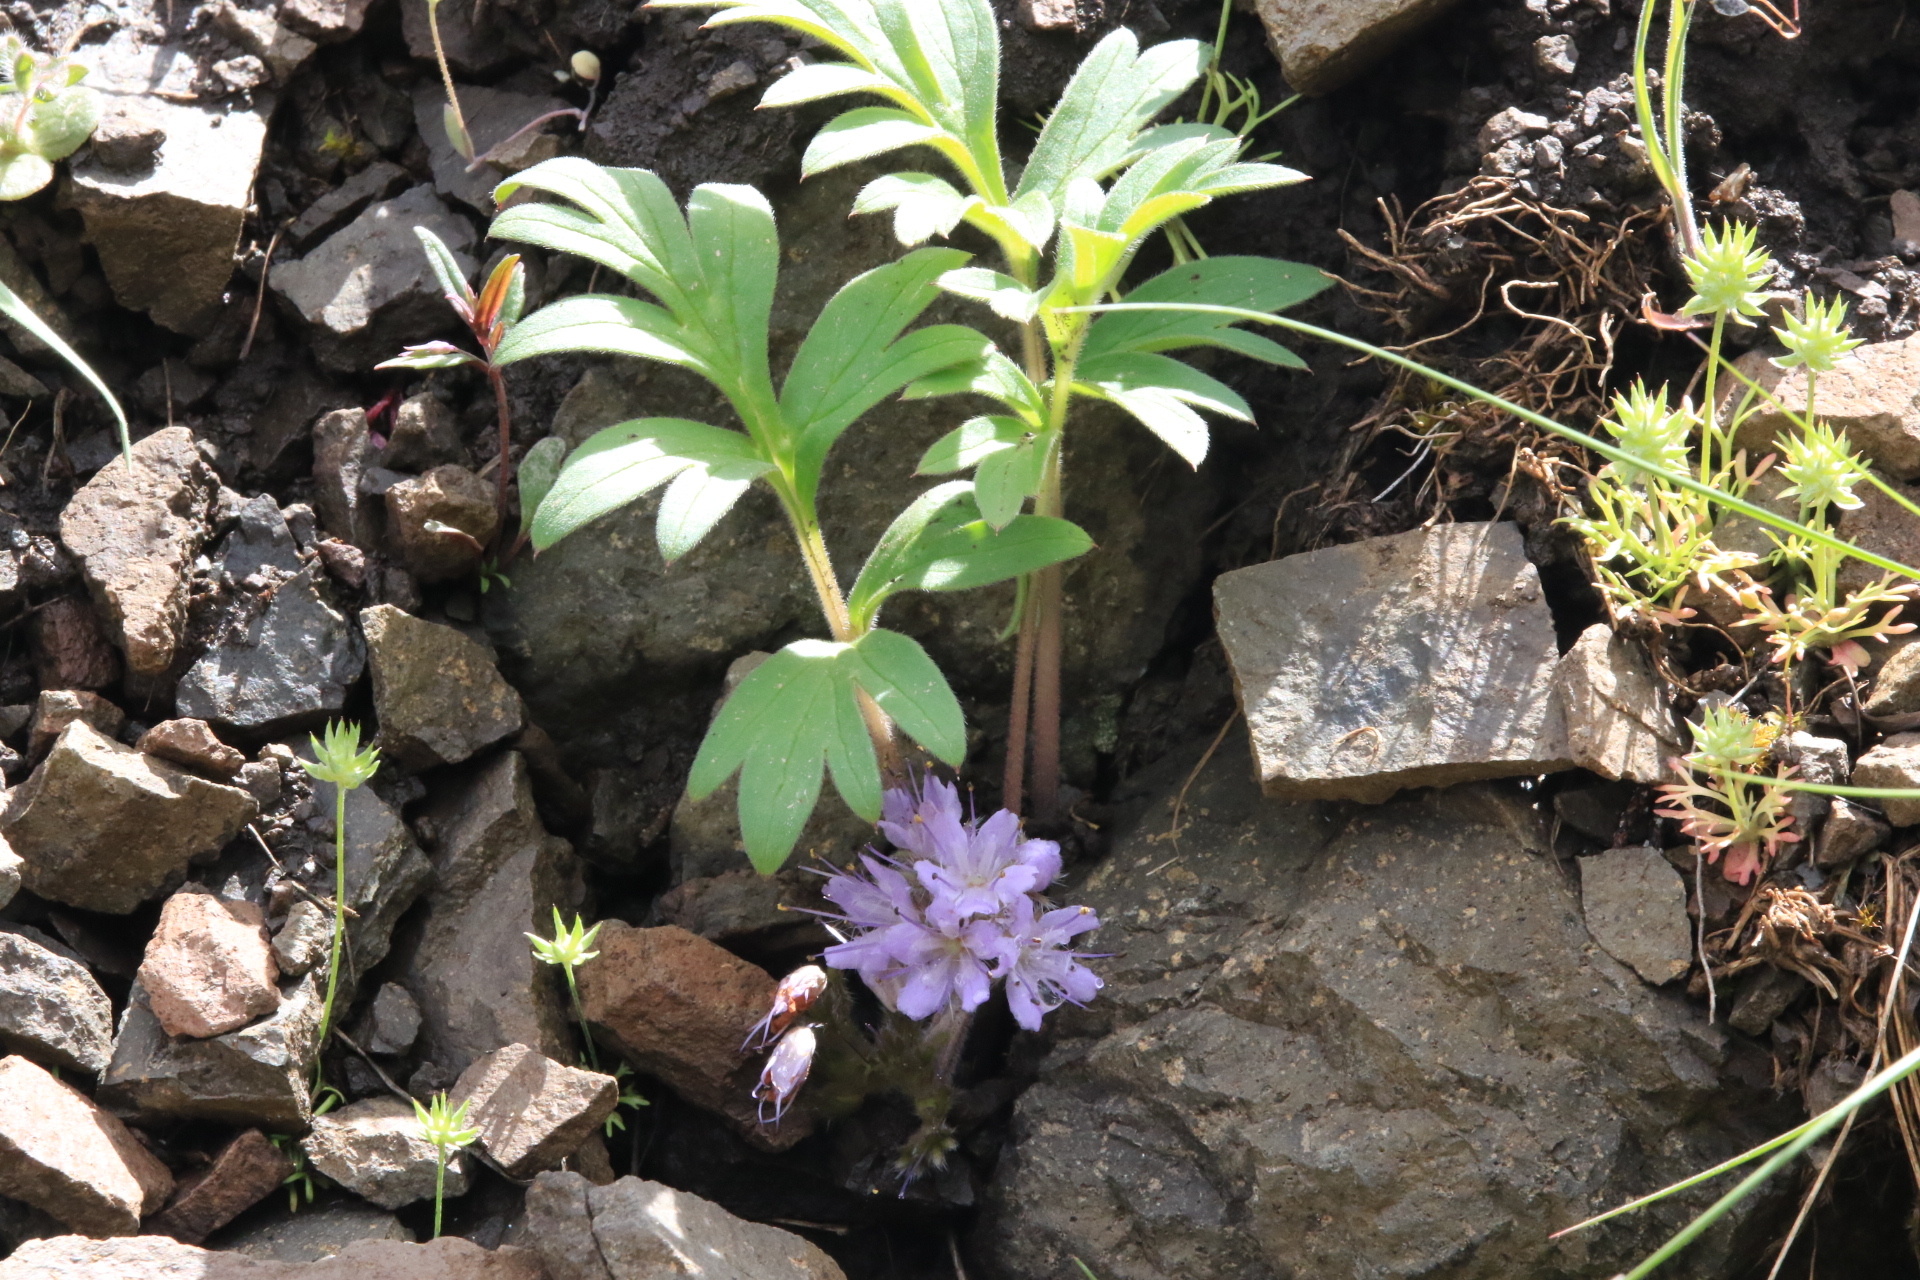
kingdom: Plantae
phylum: Tracheophyta
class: Magnoliopsida
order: Boraginales
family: Hydrophyllaceae
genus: Hydrophyllum
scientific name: Hydrophyllum alpestre
